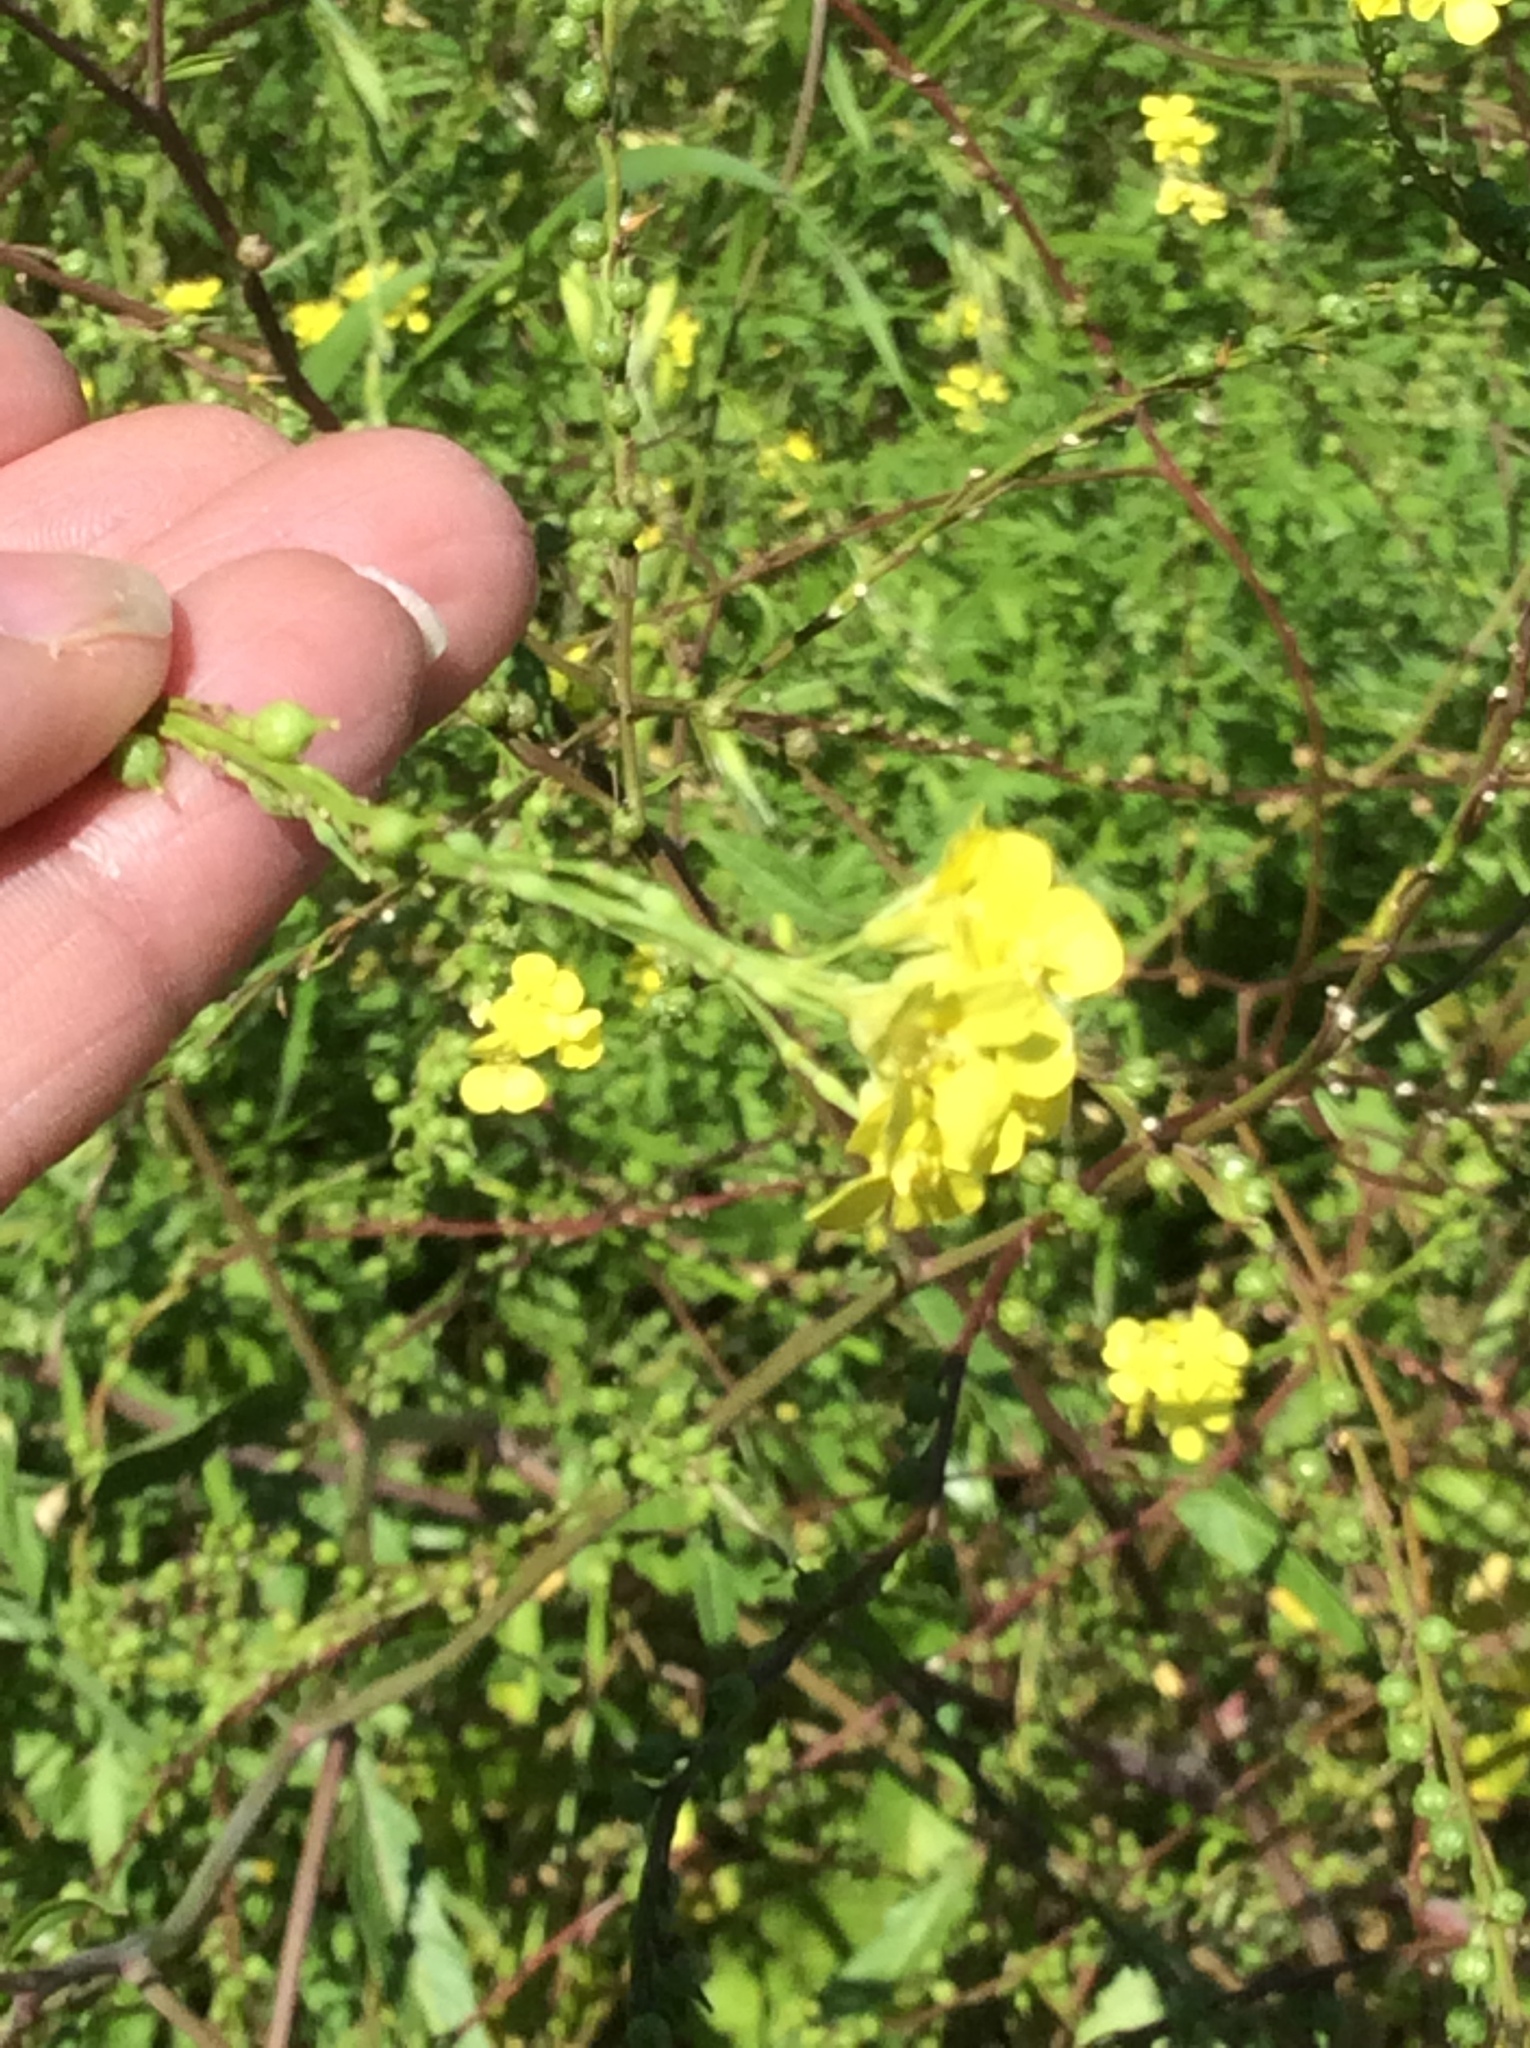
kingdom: Plantae
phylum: Tracheophyta
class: Magnoliopsida
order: Brassicales
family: Brassicaceae
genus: Rapistrum
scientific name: Rapistrum rugosum
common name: Annual bastardcabbage
